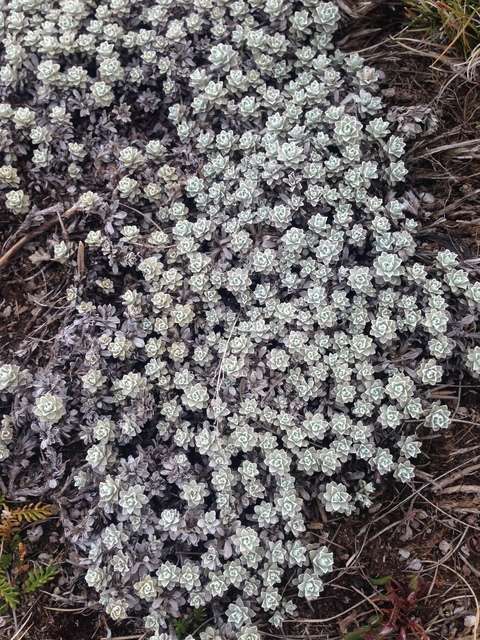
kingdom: Plantae
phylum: Tracheophyta
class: Magnoliopsida
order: Asterales
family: Asteraceae
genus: Ewartia
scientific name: Ewartia nubigena
